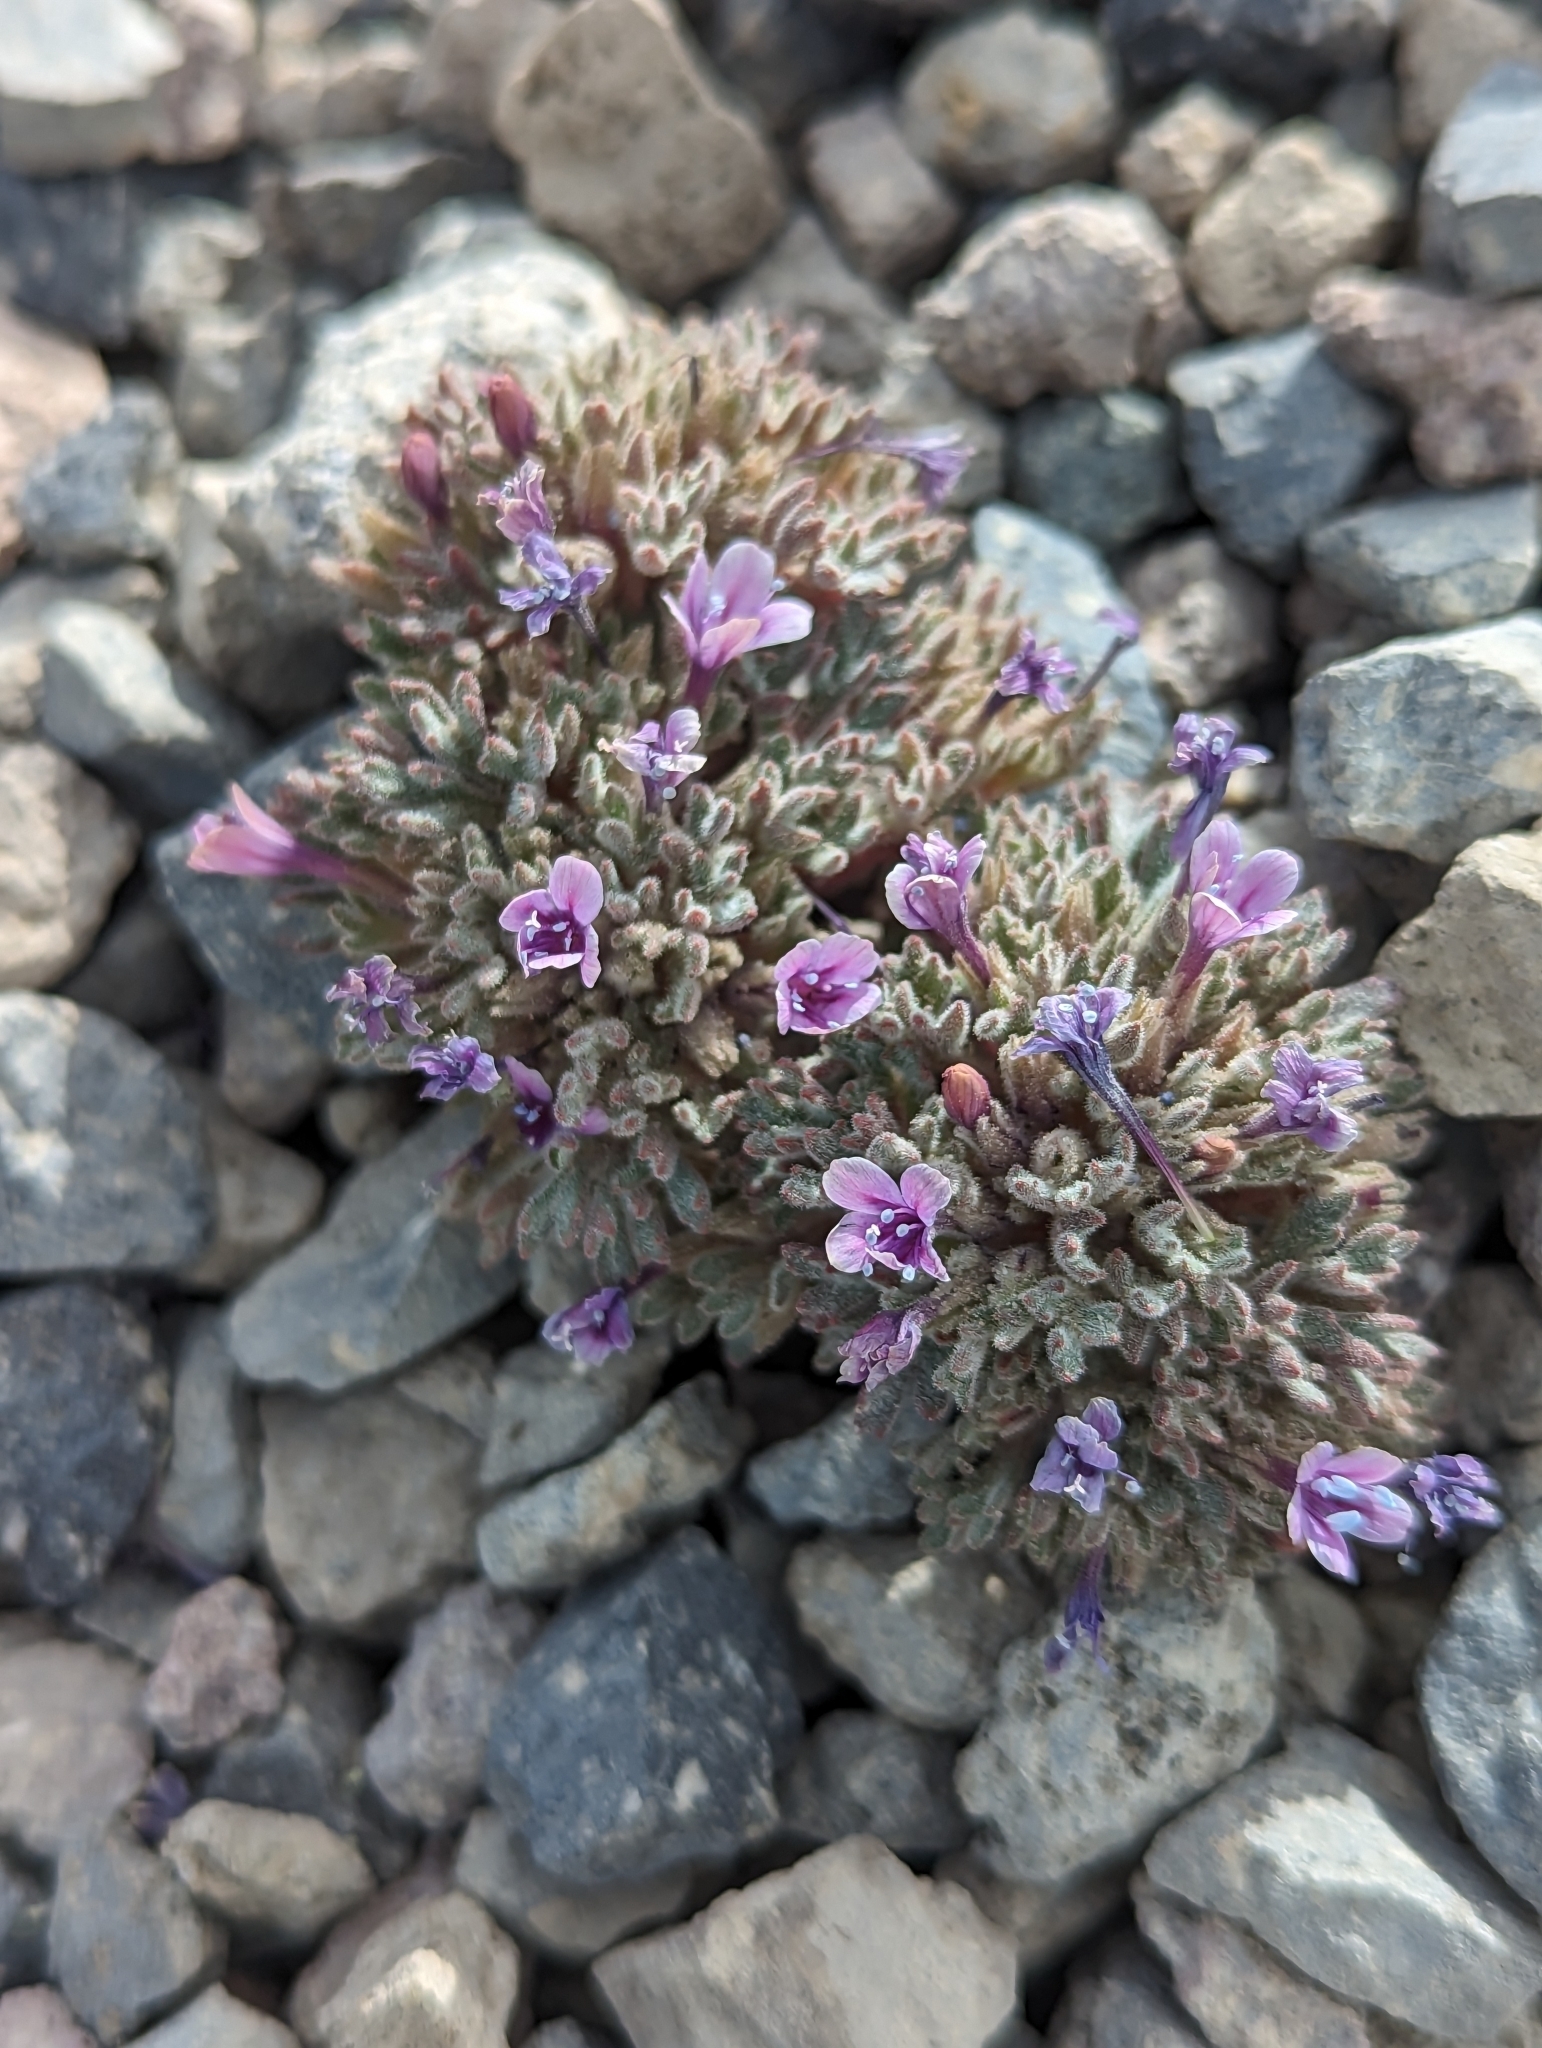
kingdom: Plantae
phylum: Tracheophyta
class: Magnoliopsida
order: Ericales
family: Polemoniaceae
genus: Collomia
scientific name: Collomia larsenii
